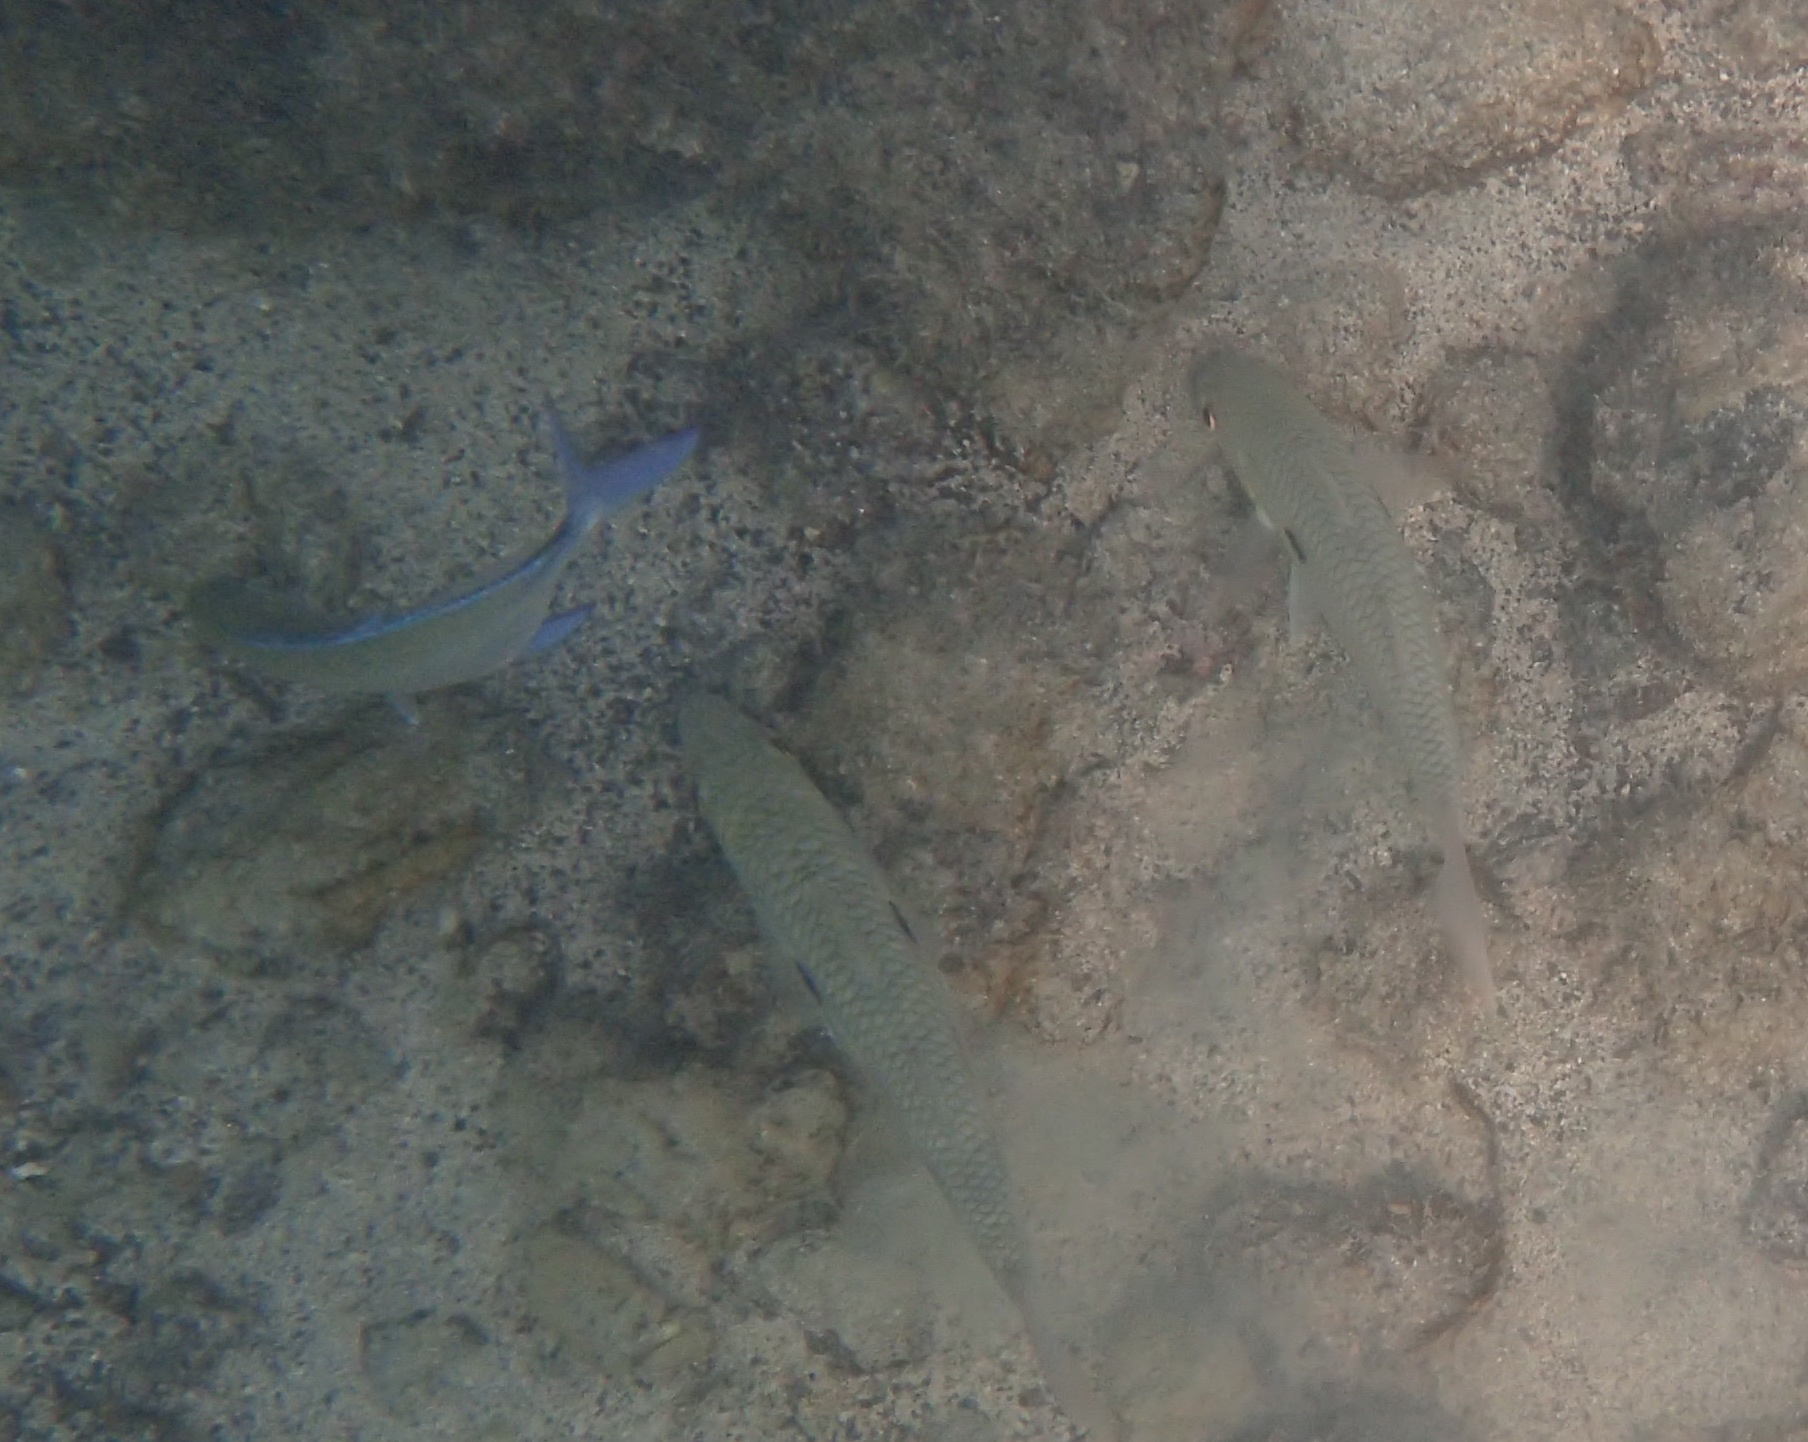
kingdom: Animalia
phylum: Chordata
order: Perciformes
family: Mullidae
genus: Mulloidichthys
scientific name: Mulloidichthys flavolineatus
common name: Yellowstripe goatfish
